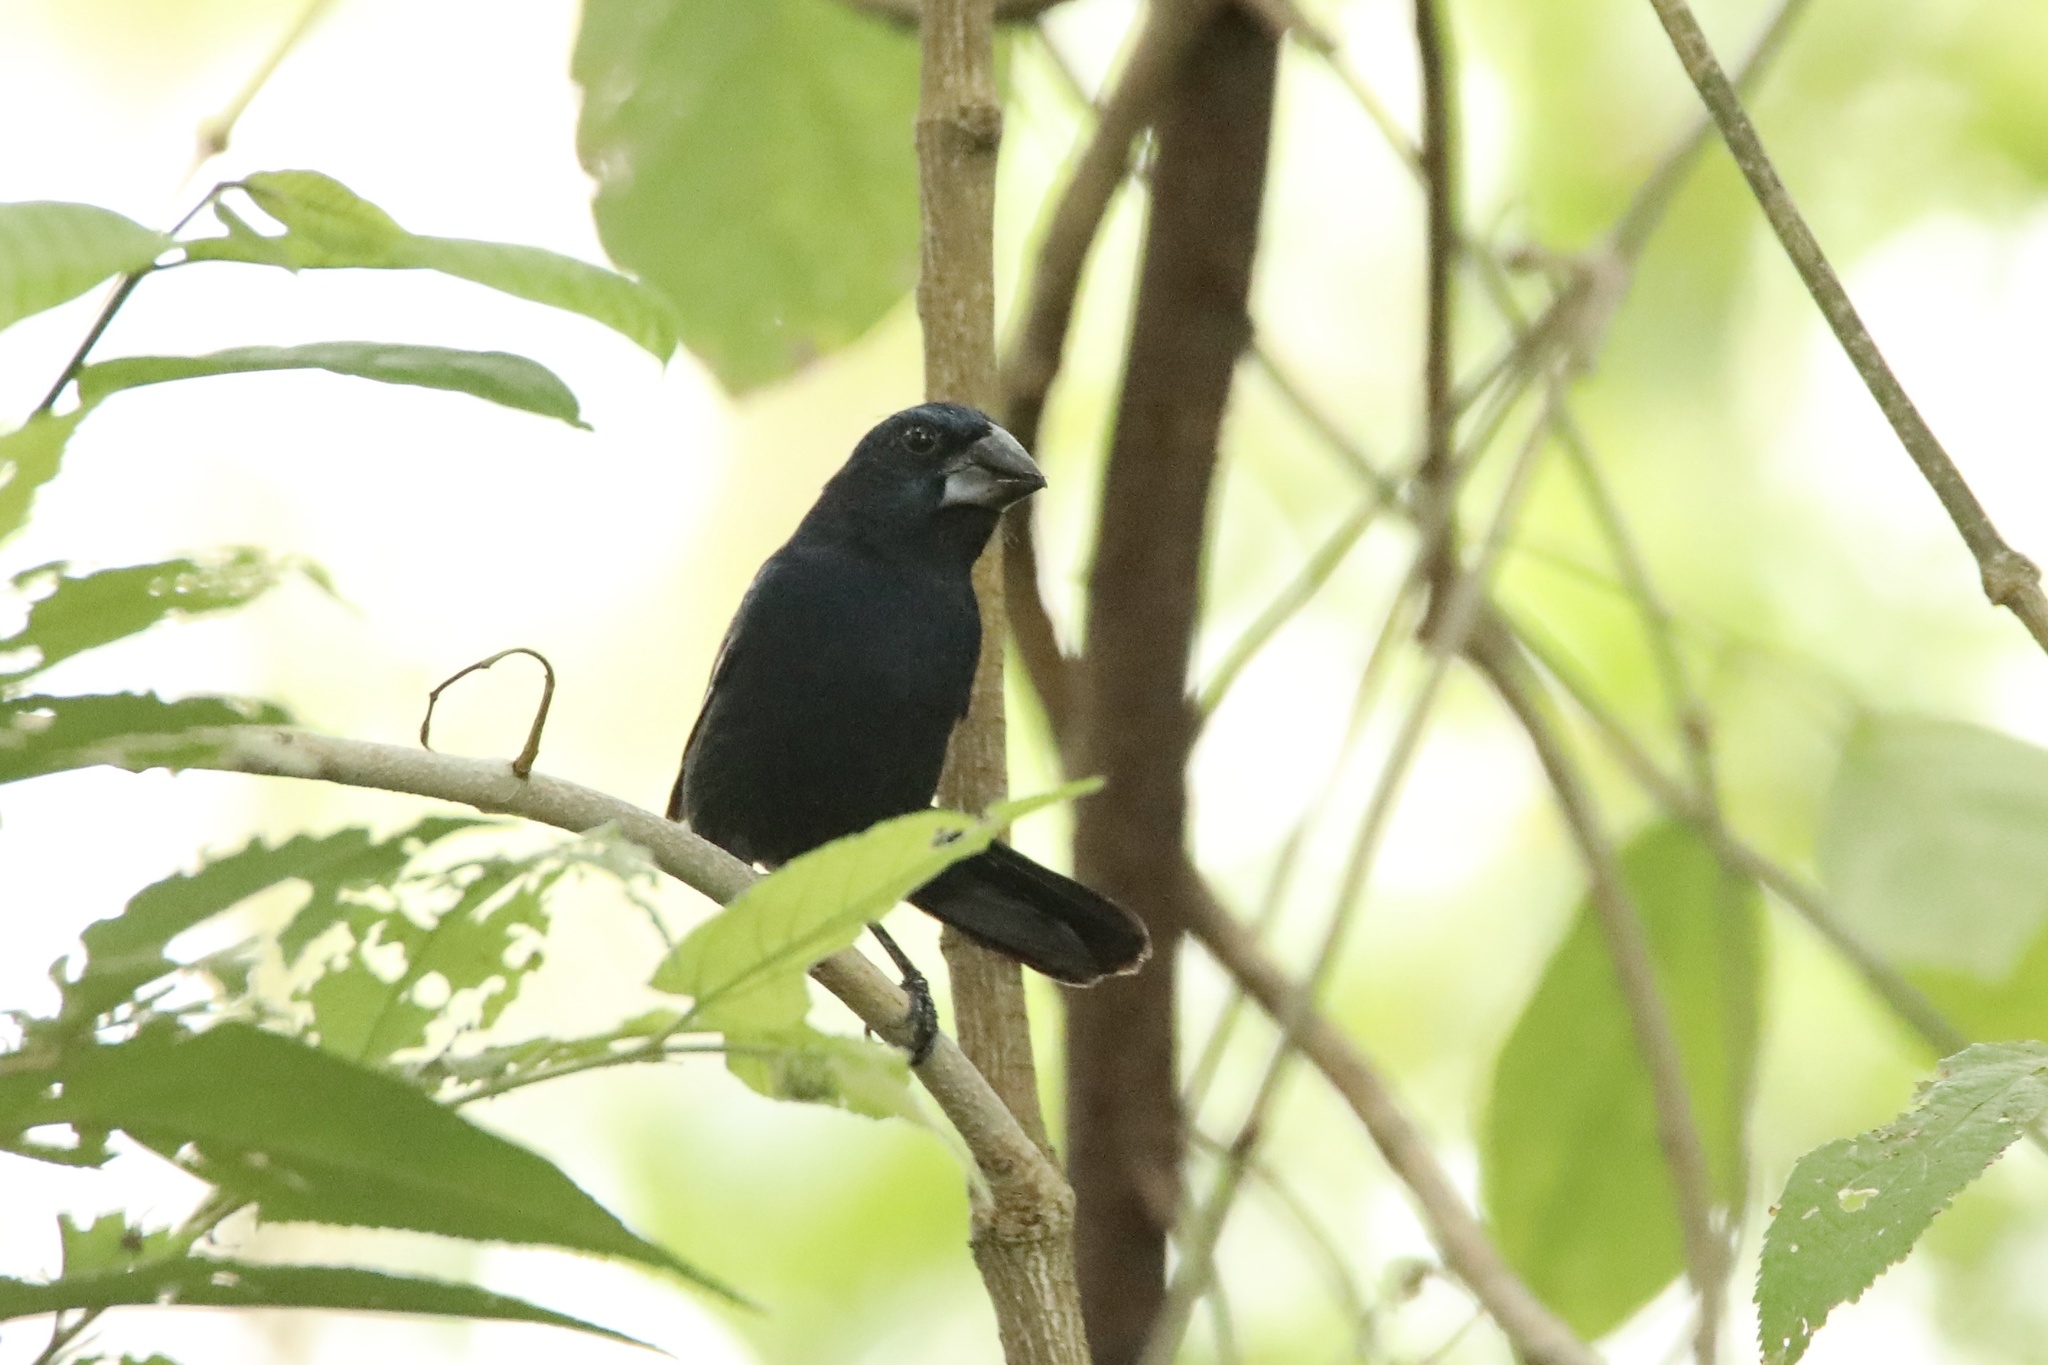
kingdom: Animalia
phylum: Chordata
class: Aves
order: Passeriformes
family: Cardinalidae
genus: Cyanocompsa
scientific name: Cyanocompsa cyanoides
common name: Blue-black grosbeak
